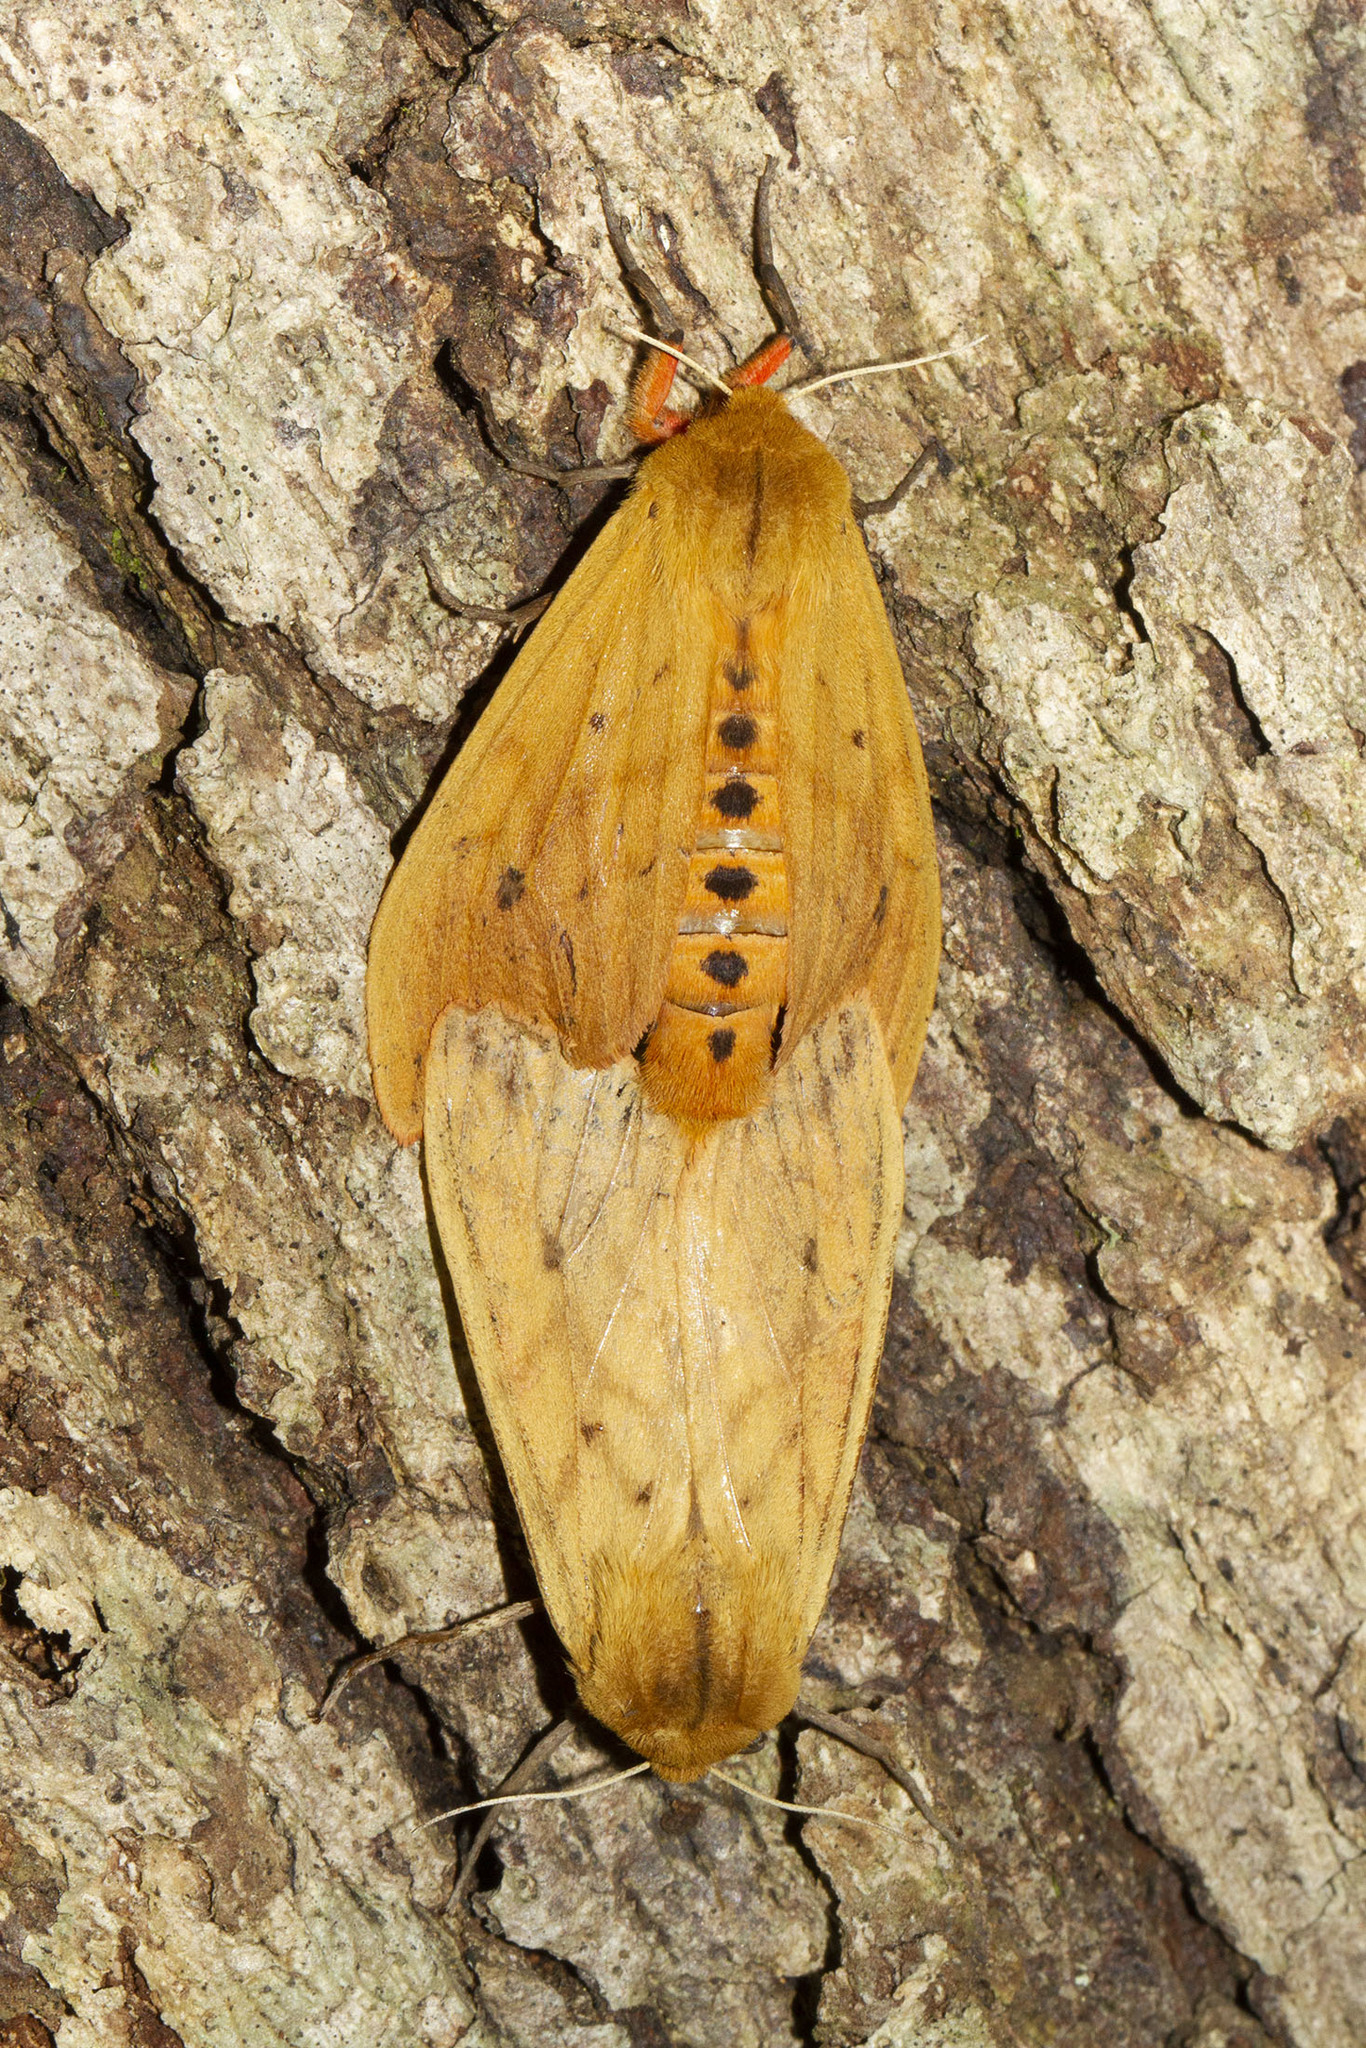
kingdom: Animalia
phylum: Arthropoda
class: Insecta
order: Lepidoptera
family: Erebidae
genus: Pyrrharctia
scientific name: Pyrrharctia isabella
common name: Isabella tiger moth
